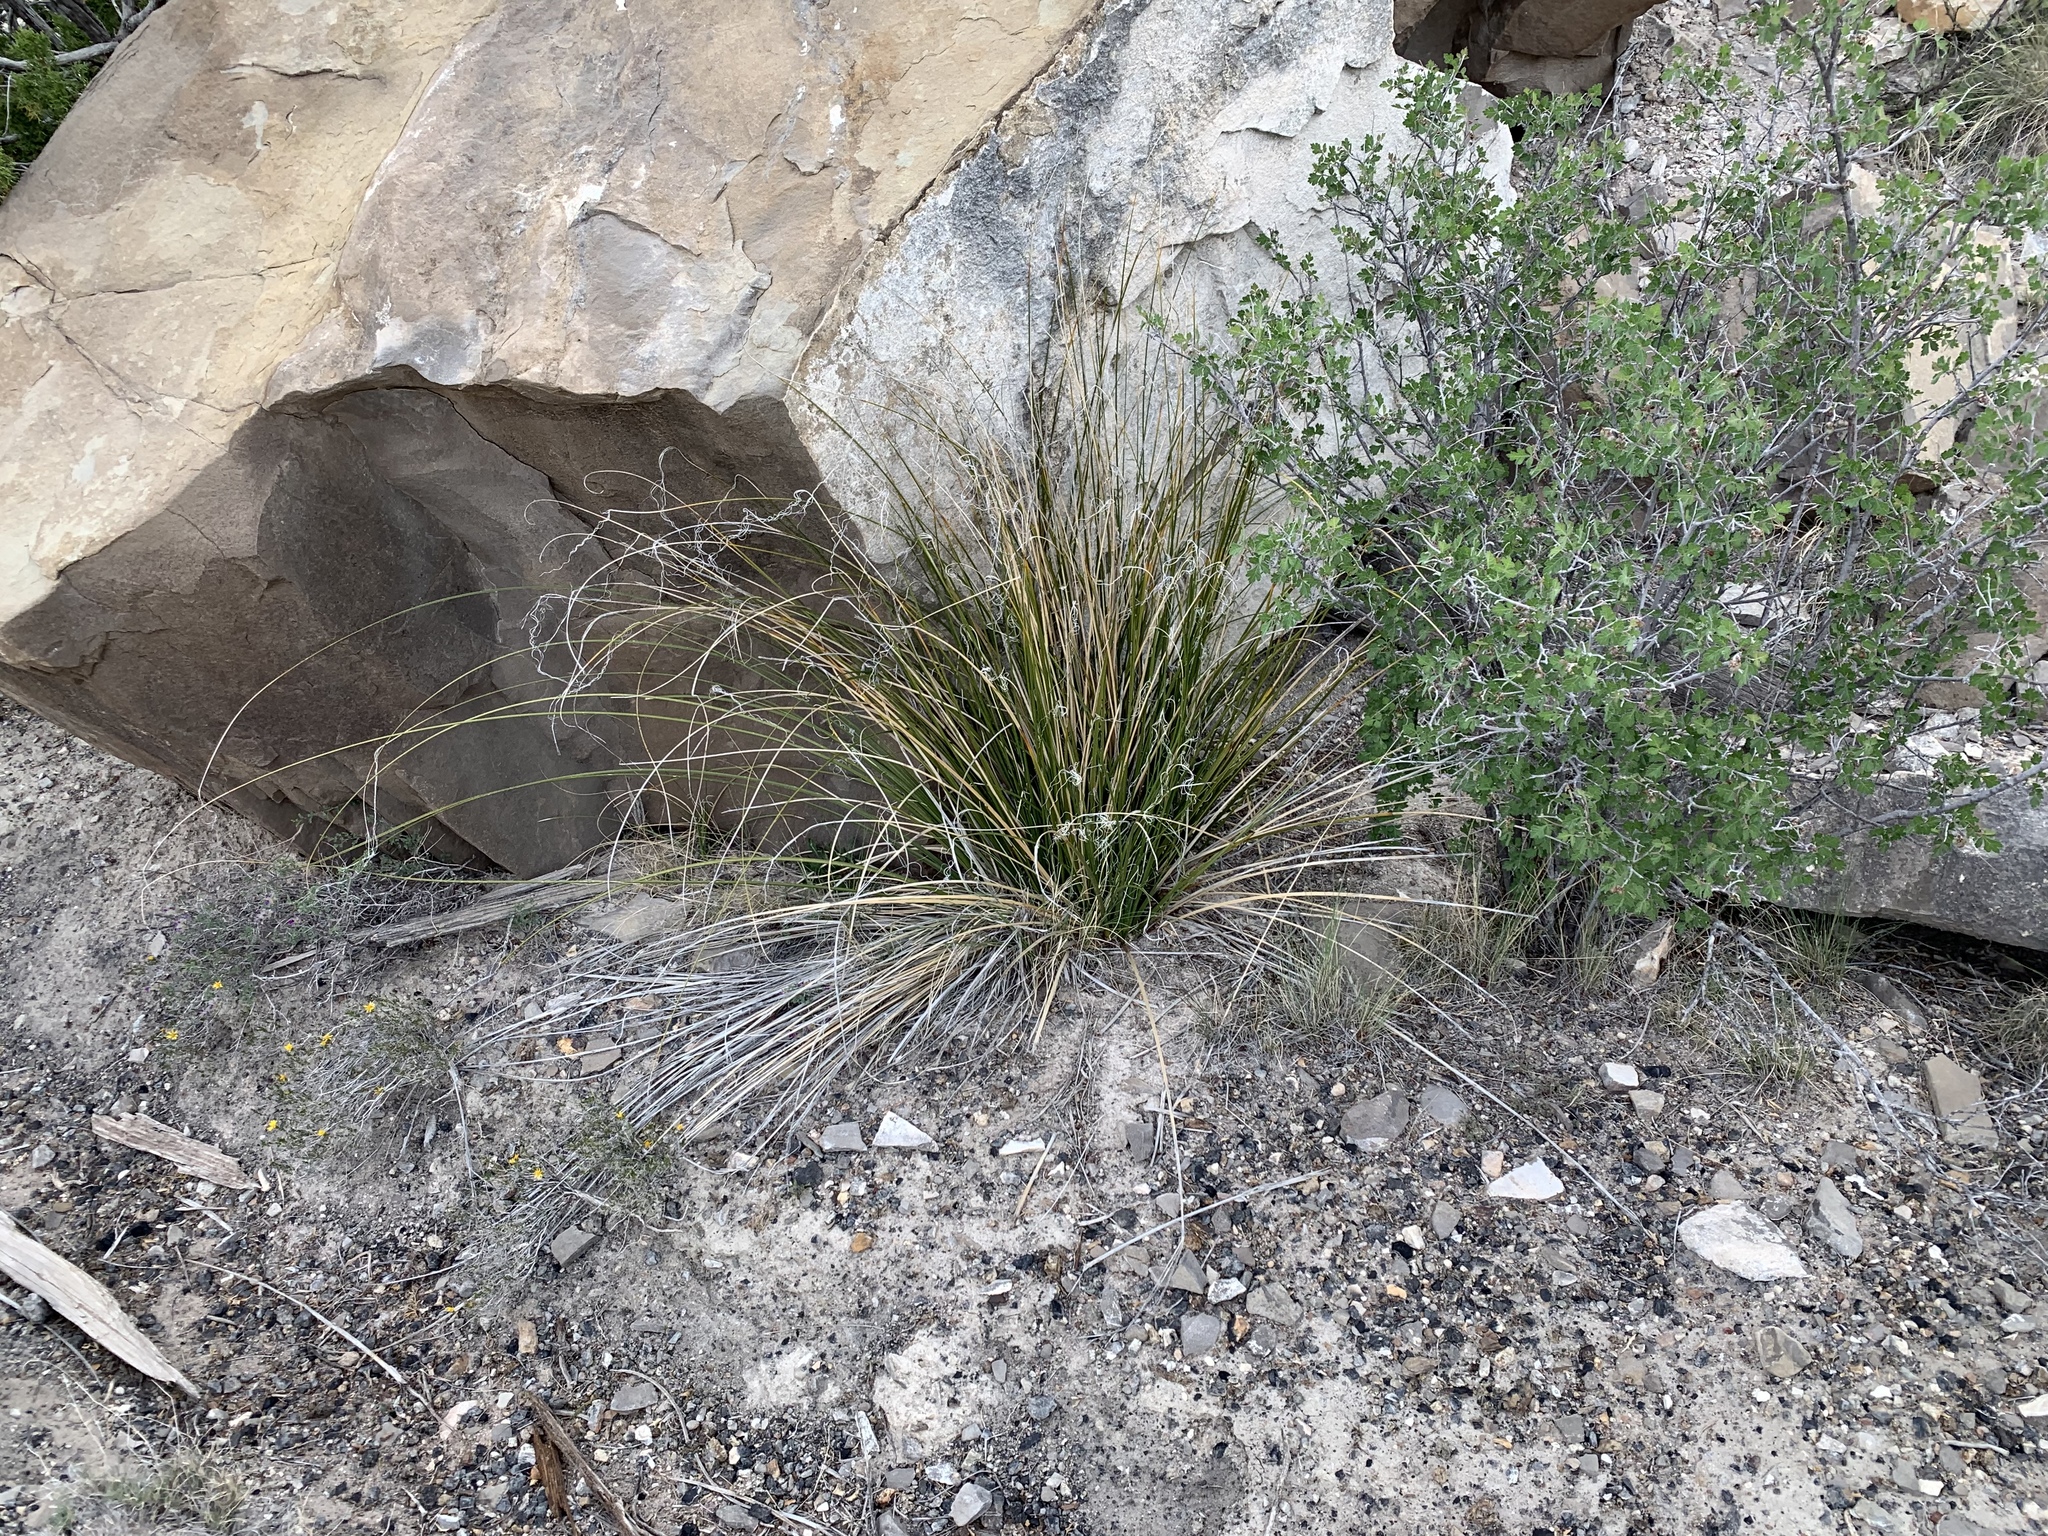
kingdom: Plantae
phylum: Tracheophyta
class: Liliopsida
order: Asparagales
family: Asparagaceae
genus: Nolina
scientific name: Nolina texana
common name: Texas sacahuiste
